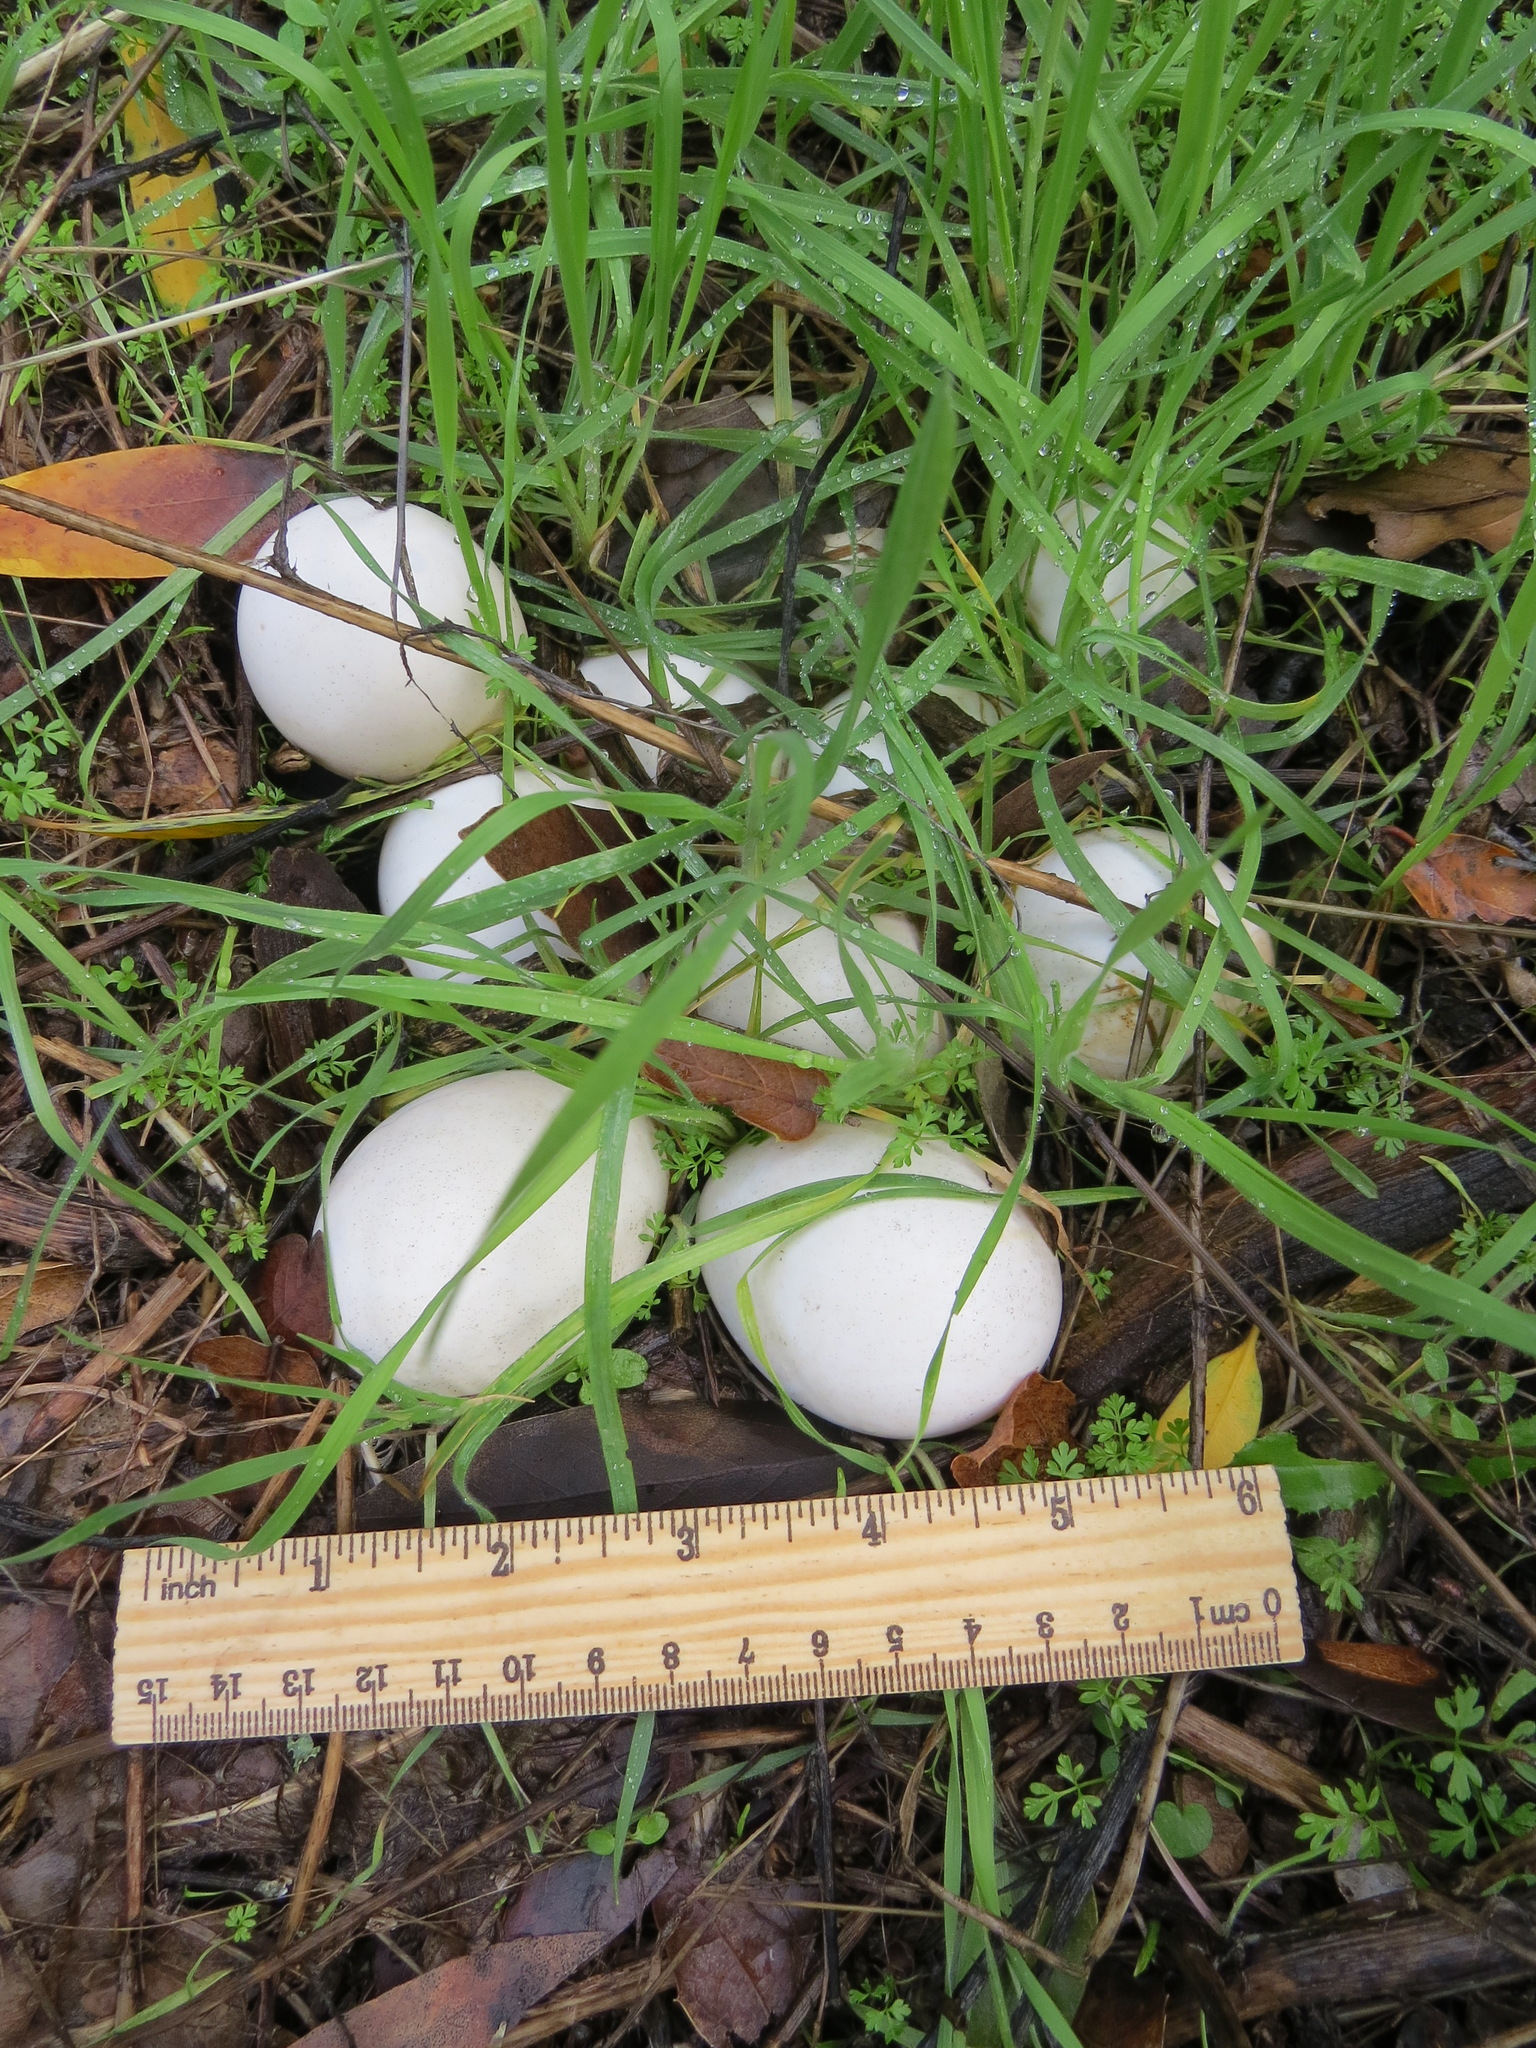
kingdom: Animalia
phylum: Chordata
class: Aves
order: Galliformes
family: Phasianidae
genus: Meleagris
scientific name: Meleagris gallopavo
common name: Wild turkey
